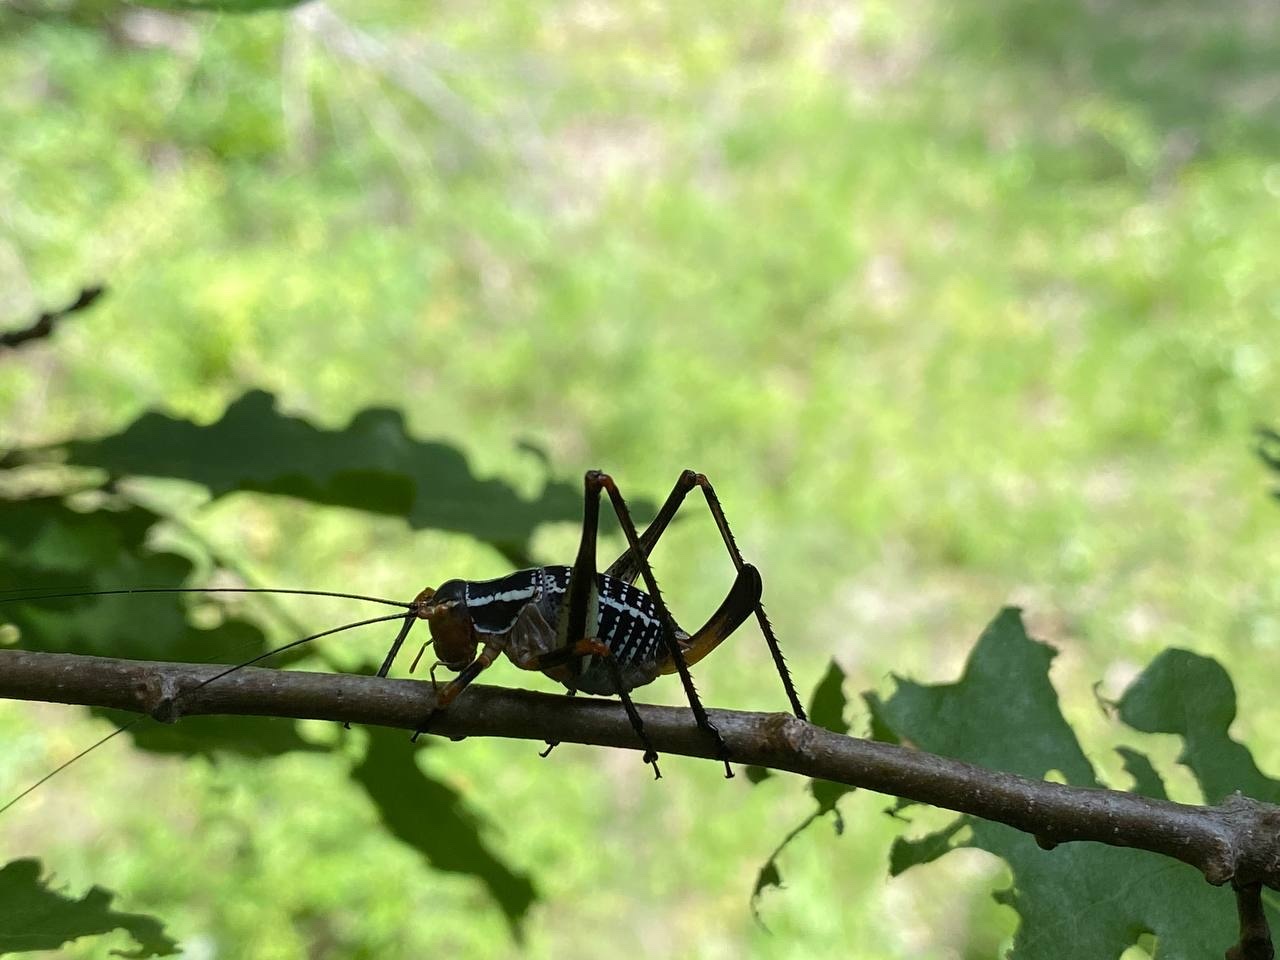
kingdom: Animalia
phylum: Arthropoda
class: Insecta
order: Orthoptera
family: Tettigoniidae
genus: Barbitistes
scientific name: Barbitistes ocskayi
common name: Black saw bush-cricket
